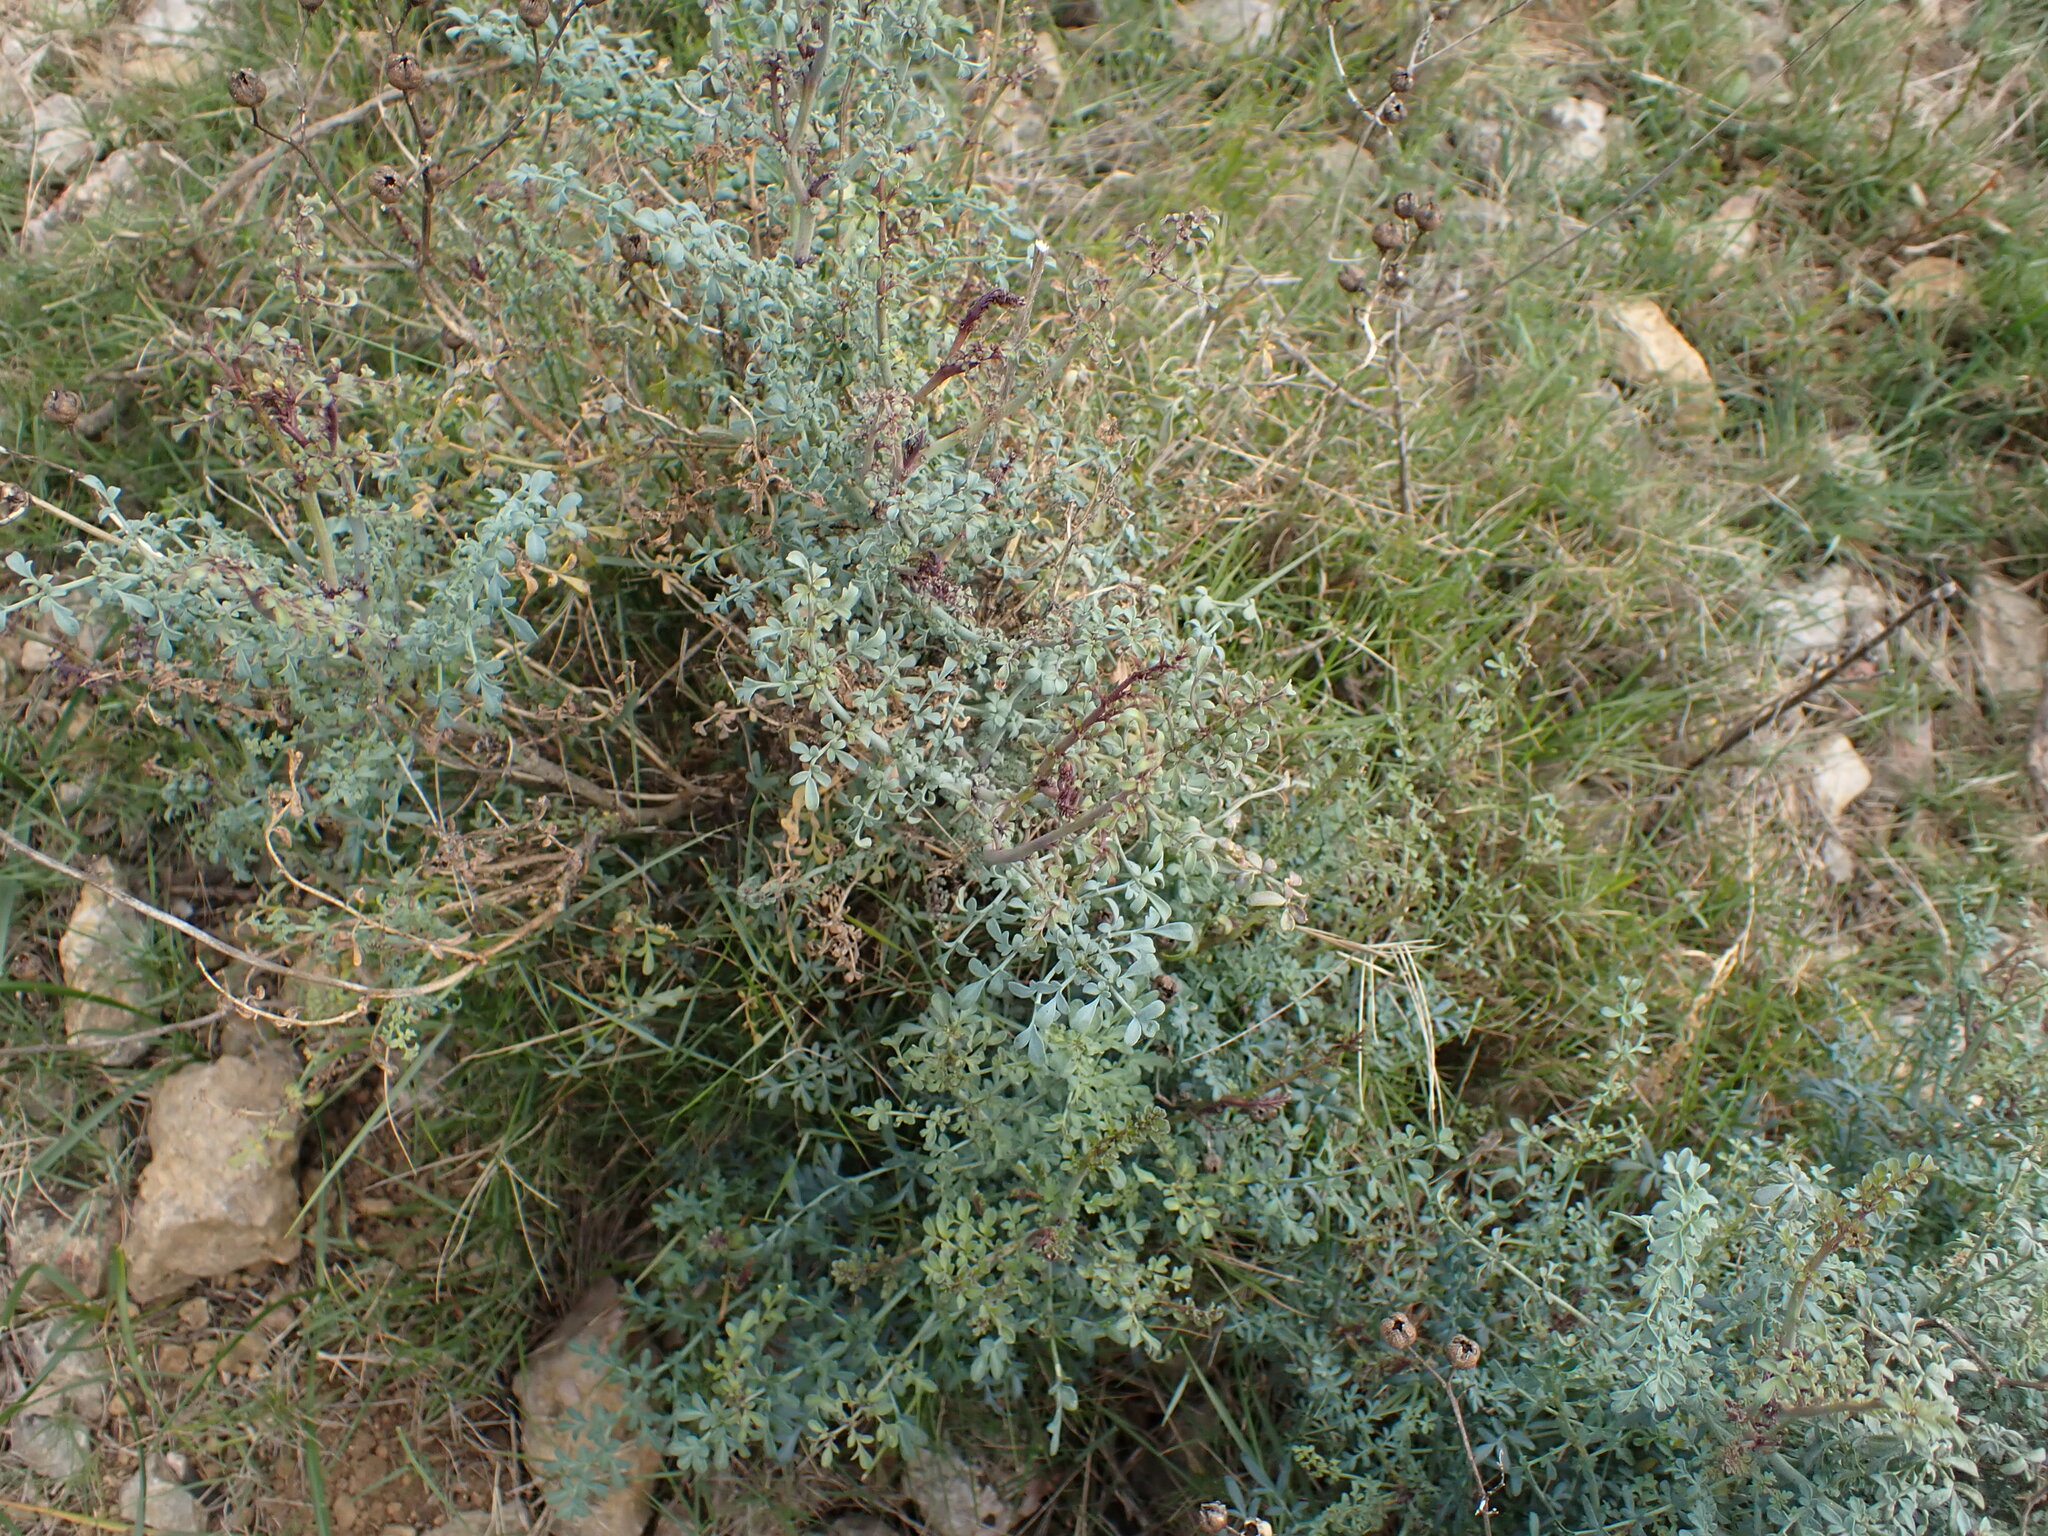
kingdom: Plantae
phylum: Tracheophyta
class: Magnoliopsida
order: Sapindales
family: Rutaceae
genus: Ruta
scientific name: Ruta angustifolia
